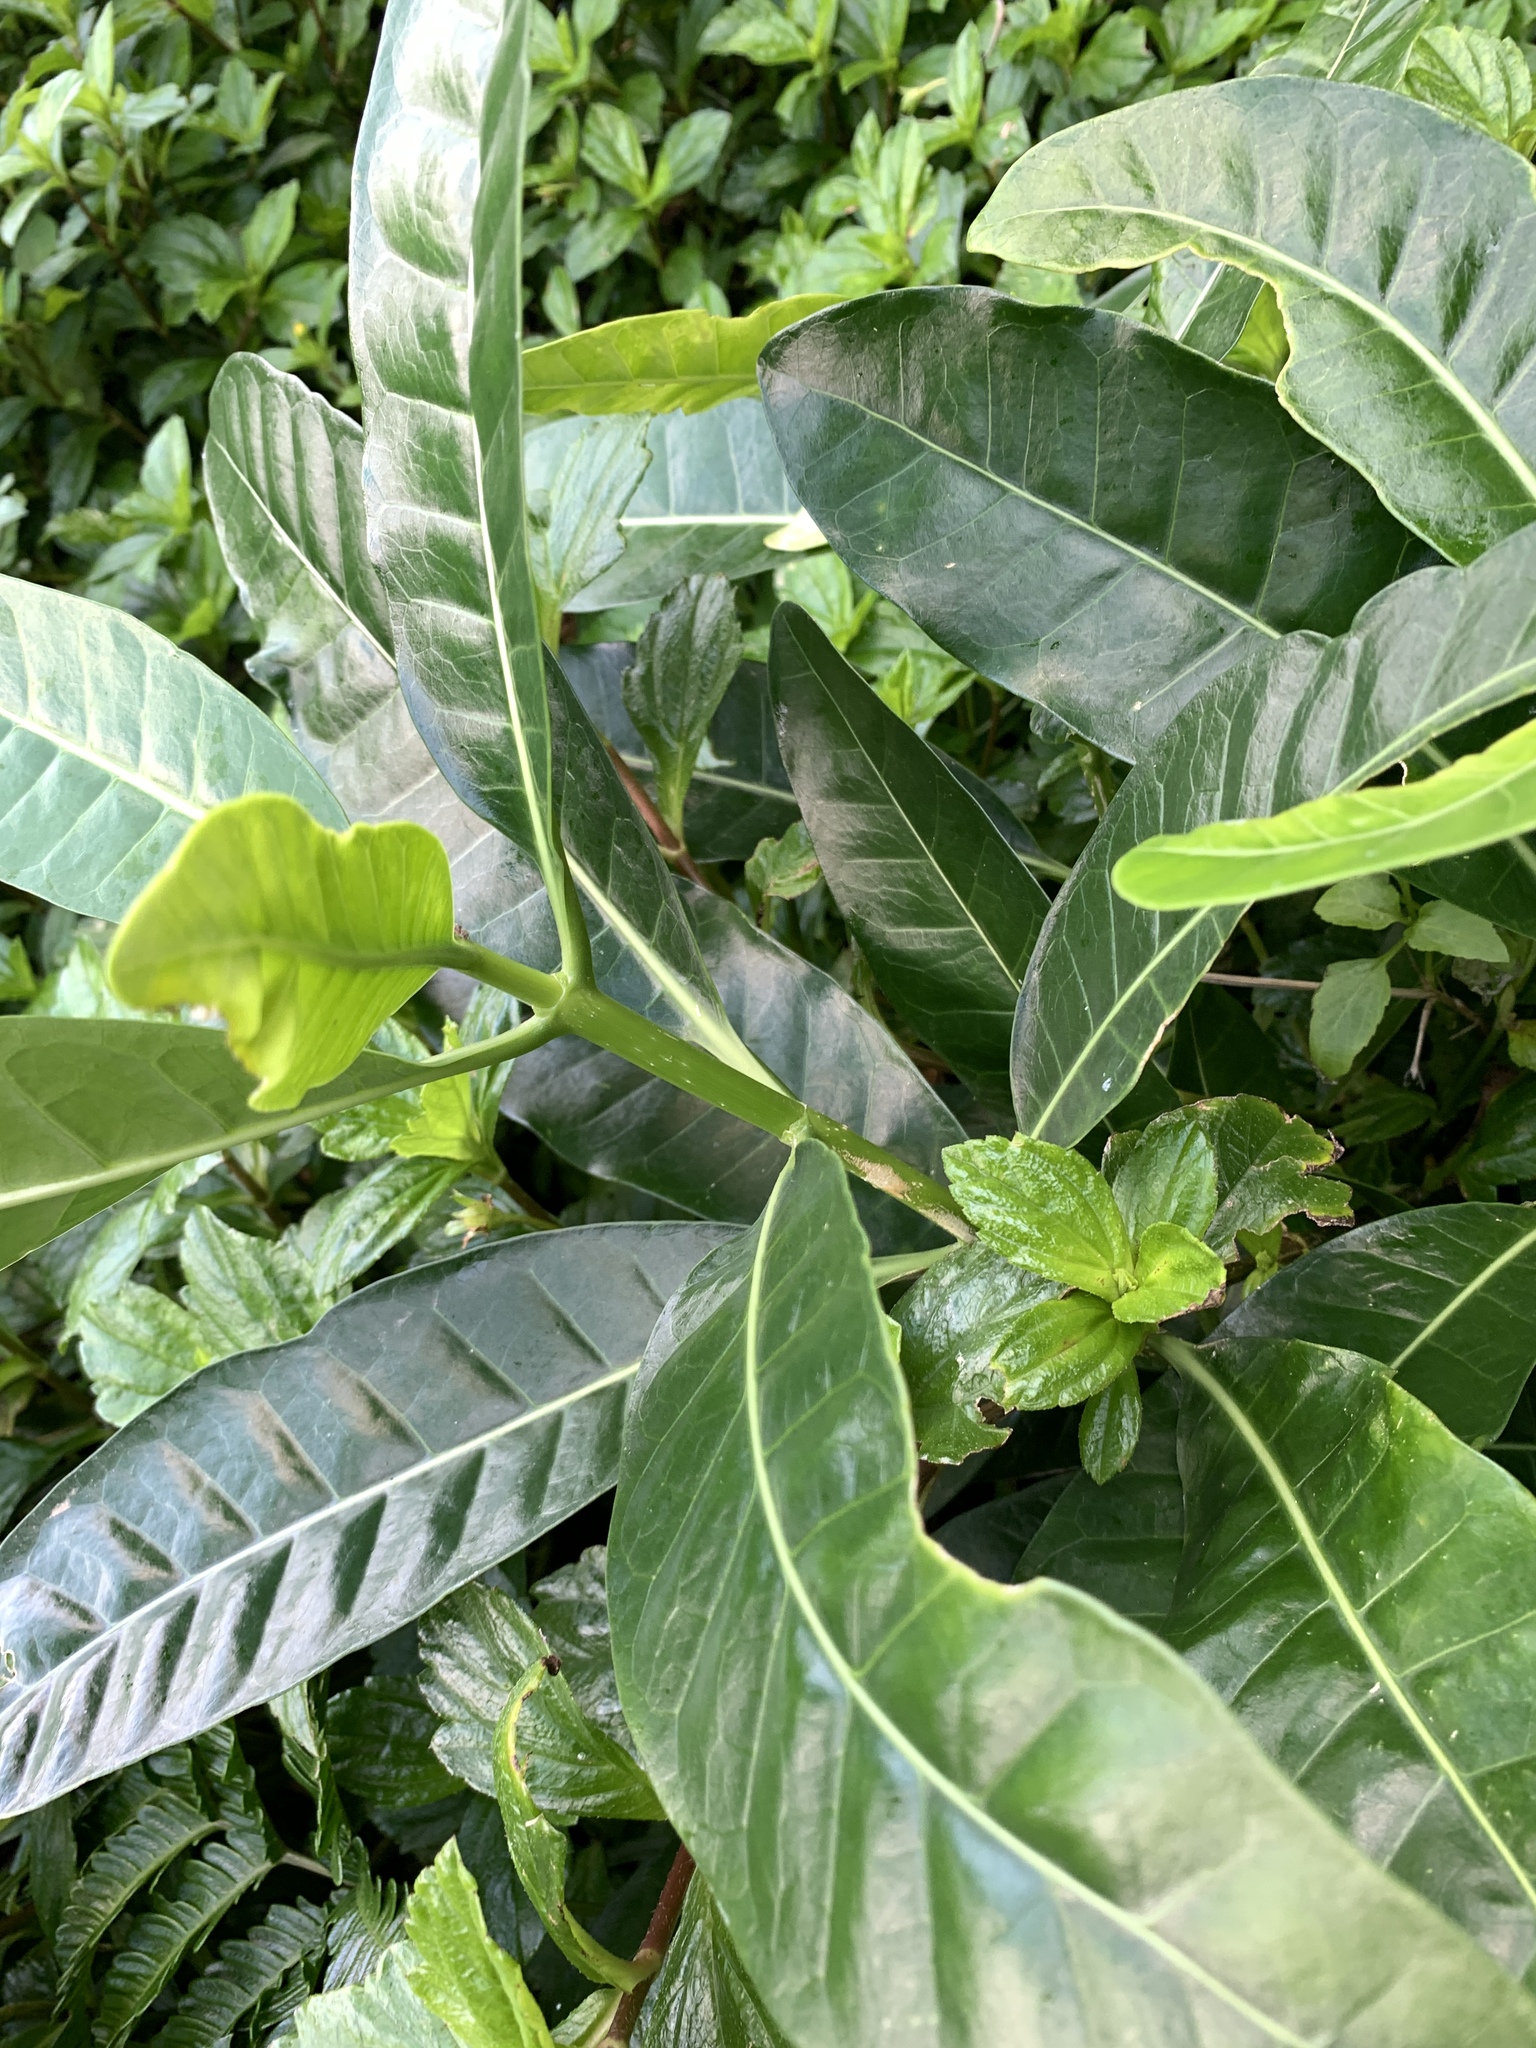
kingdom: Plantae
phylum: Tracheophyta
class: Magnoliopsida
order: Gentianales
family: Apocynaceae
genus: Tabernaemontana
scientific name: Tabernaemontana pandacaqui
